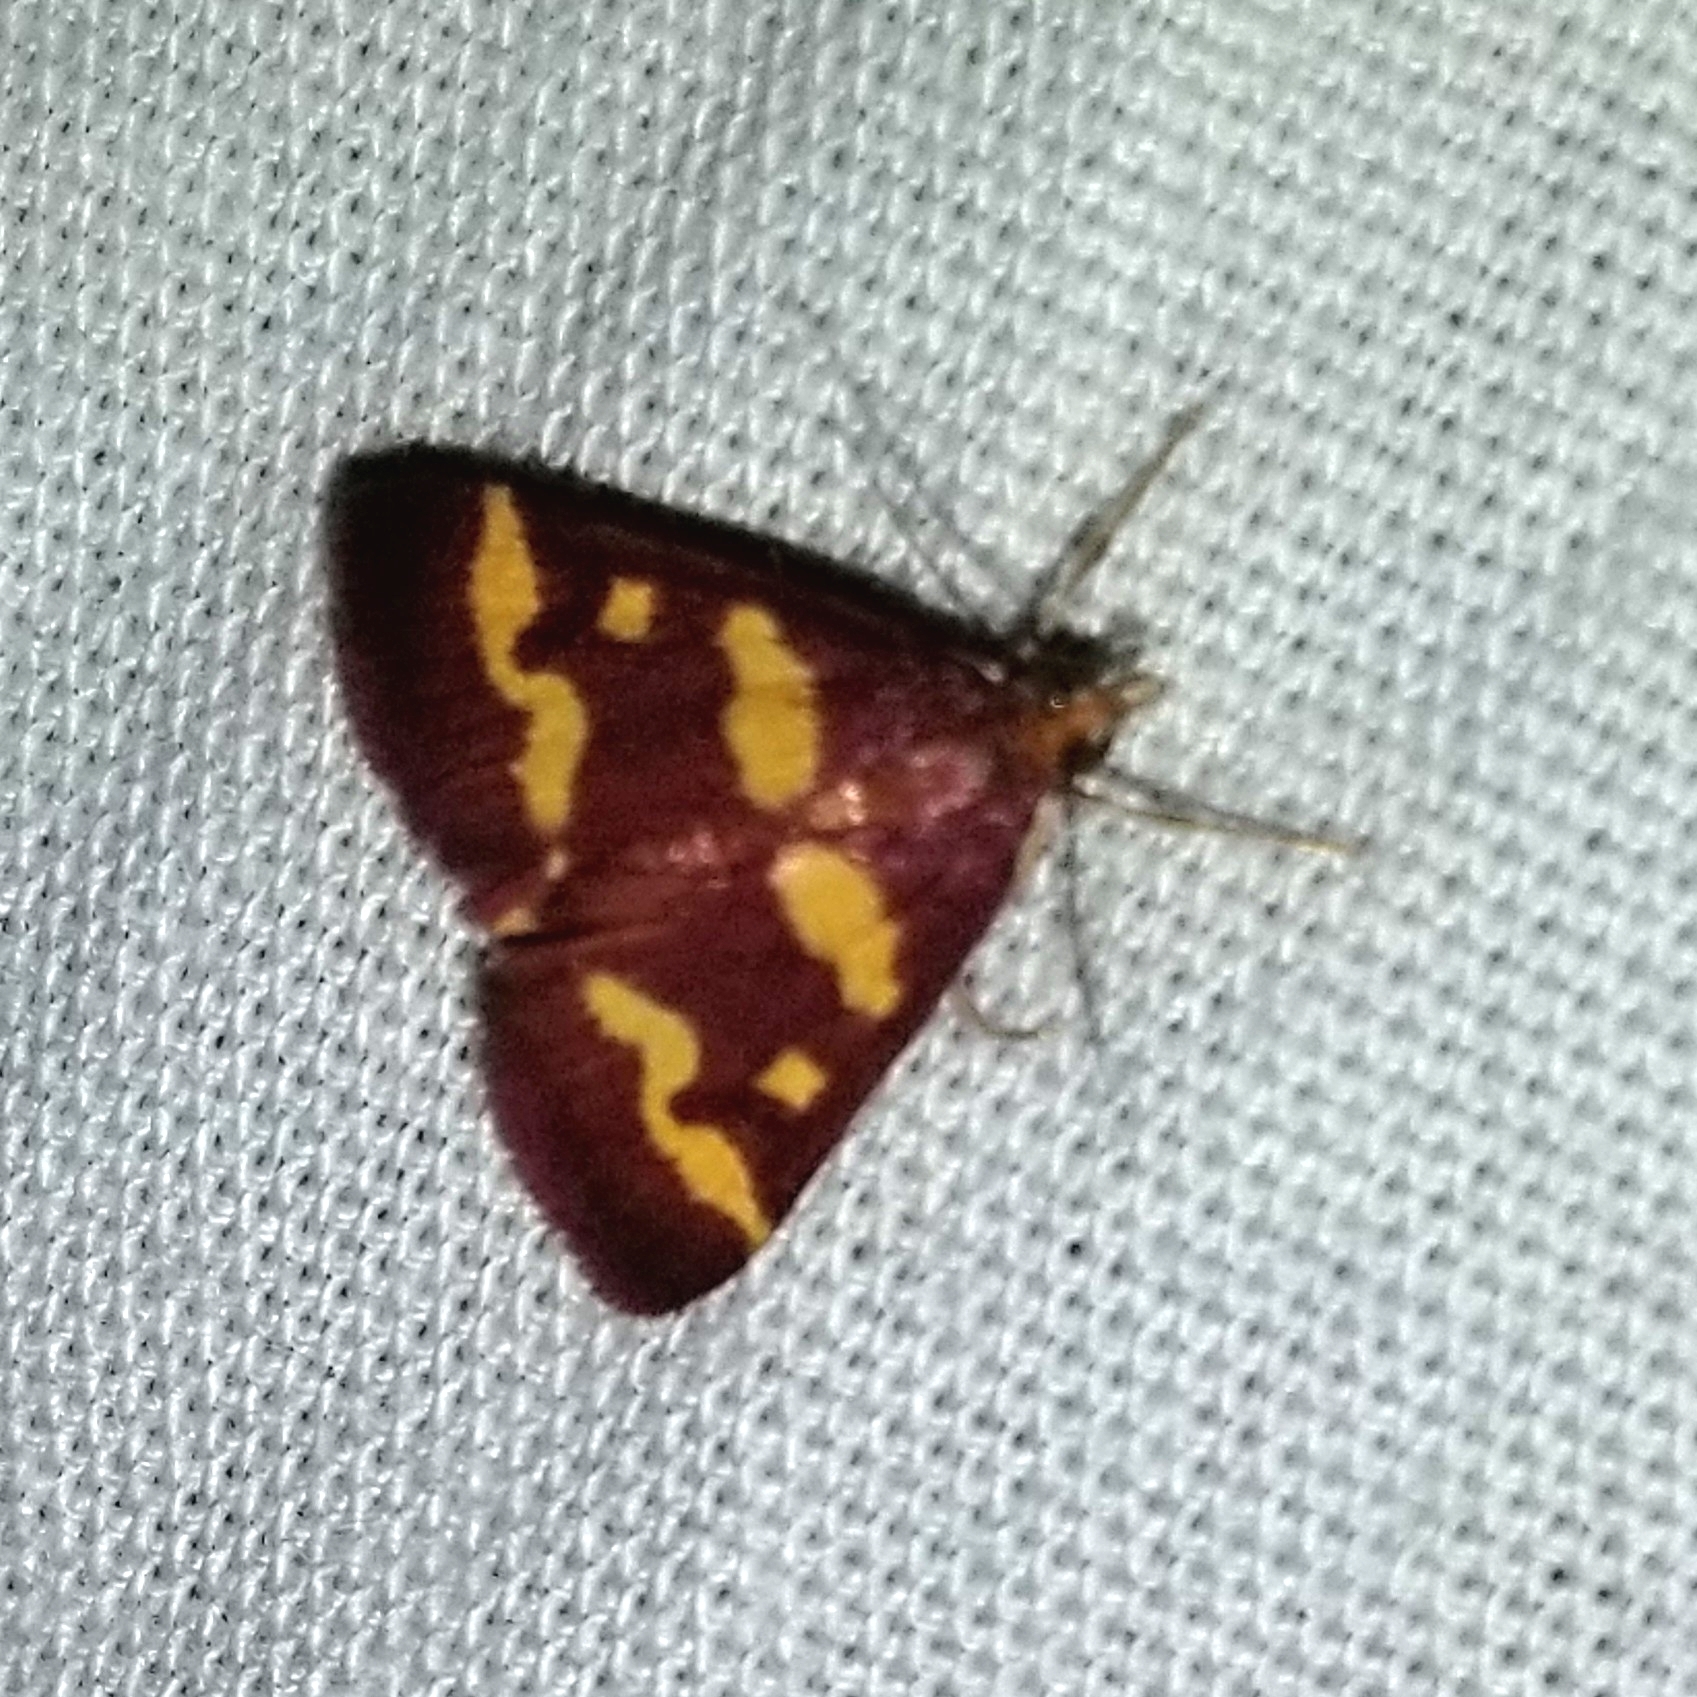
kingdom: Animalia
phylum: Arthropoda
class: Insecta
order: Lepidoptera
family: Crambidae
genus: Pyrausta
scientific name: Pyrausta tyralis
